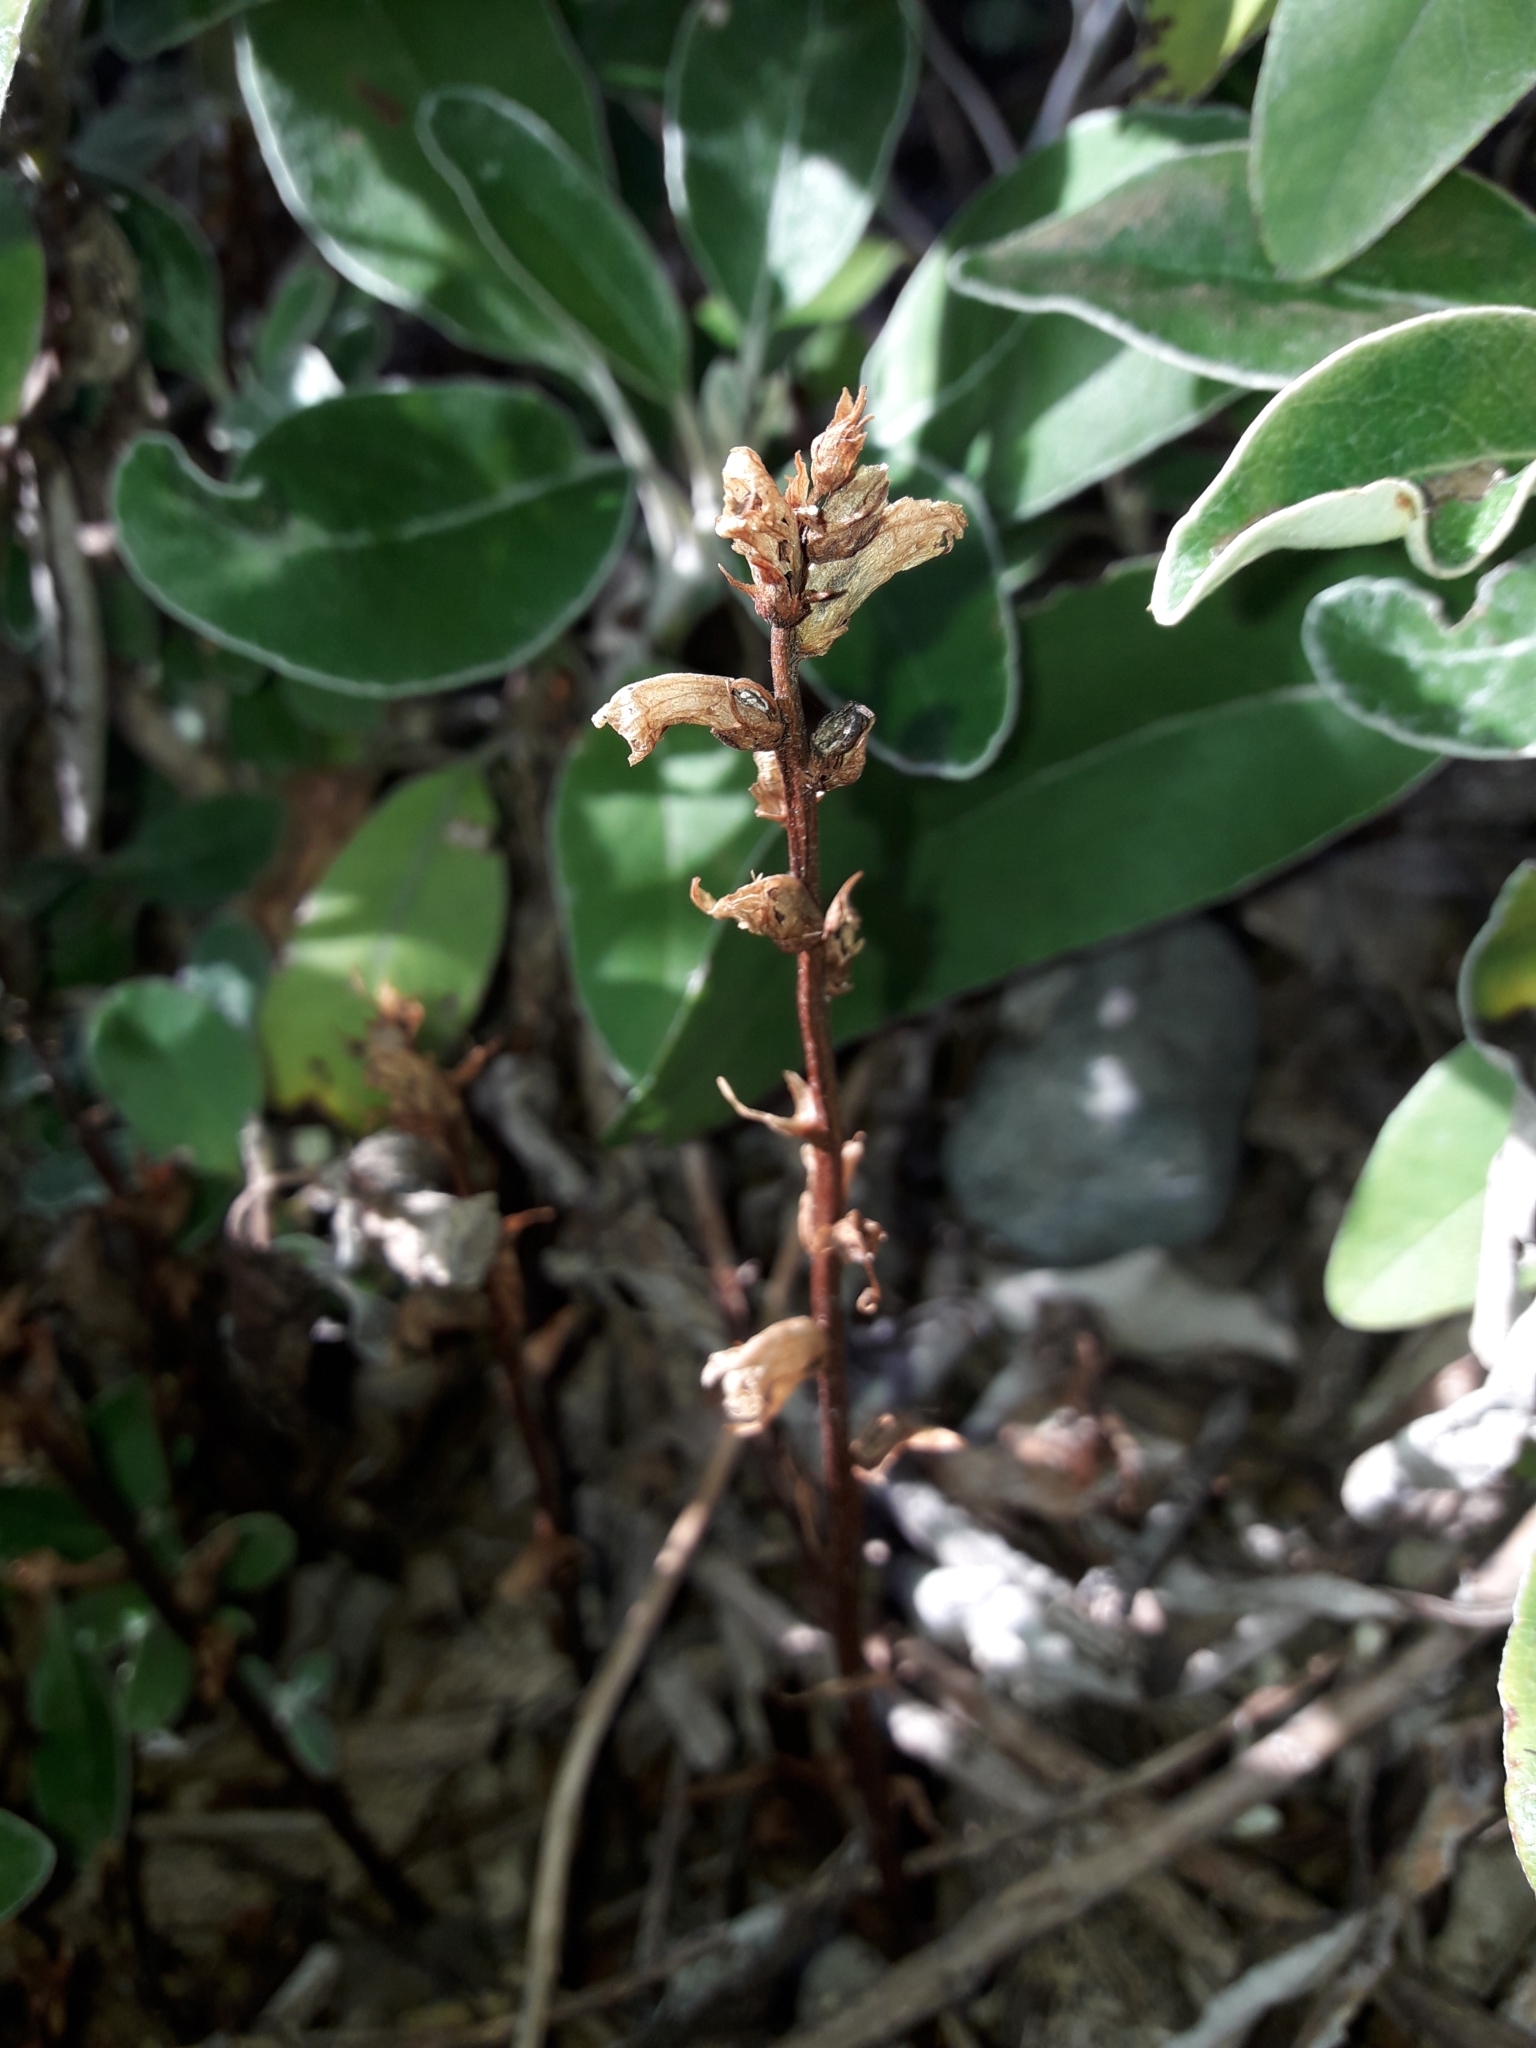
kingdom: Plantae
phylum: Tracheophyta
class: Magnoliopsida
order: Lamiales
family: Orobanchaceae
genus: Orobanche
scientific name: Orobanche minor
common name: Common broomrape
